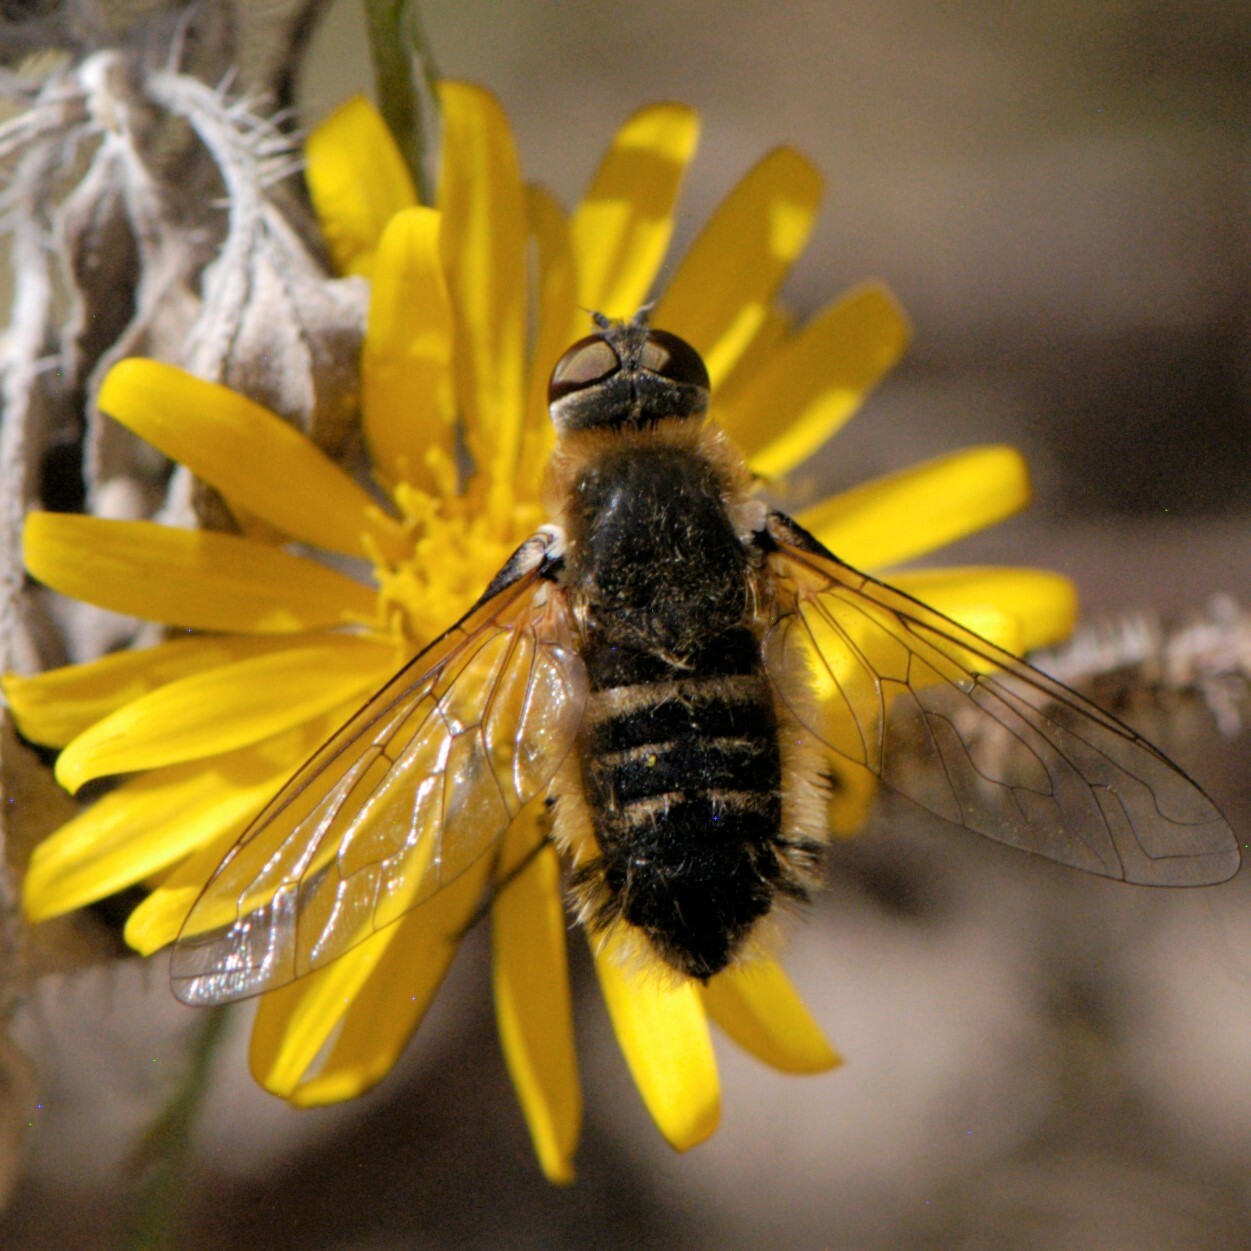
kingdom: Animalia
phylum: Arthropoda
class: Insecta
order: Diptera
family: Bombyliidae
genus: Villa
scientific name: Villa
